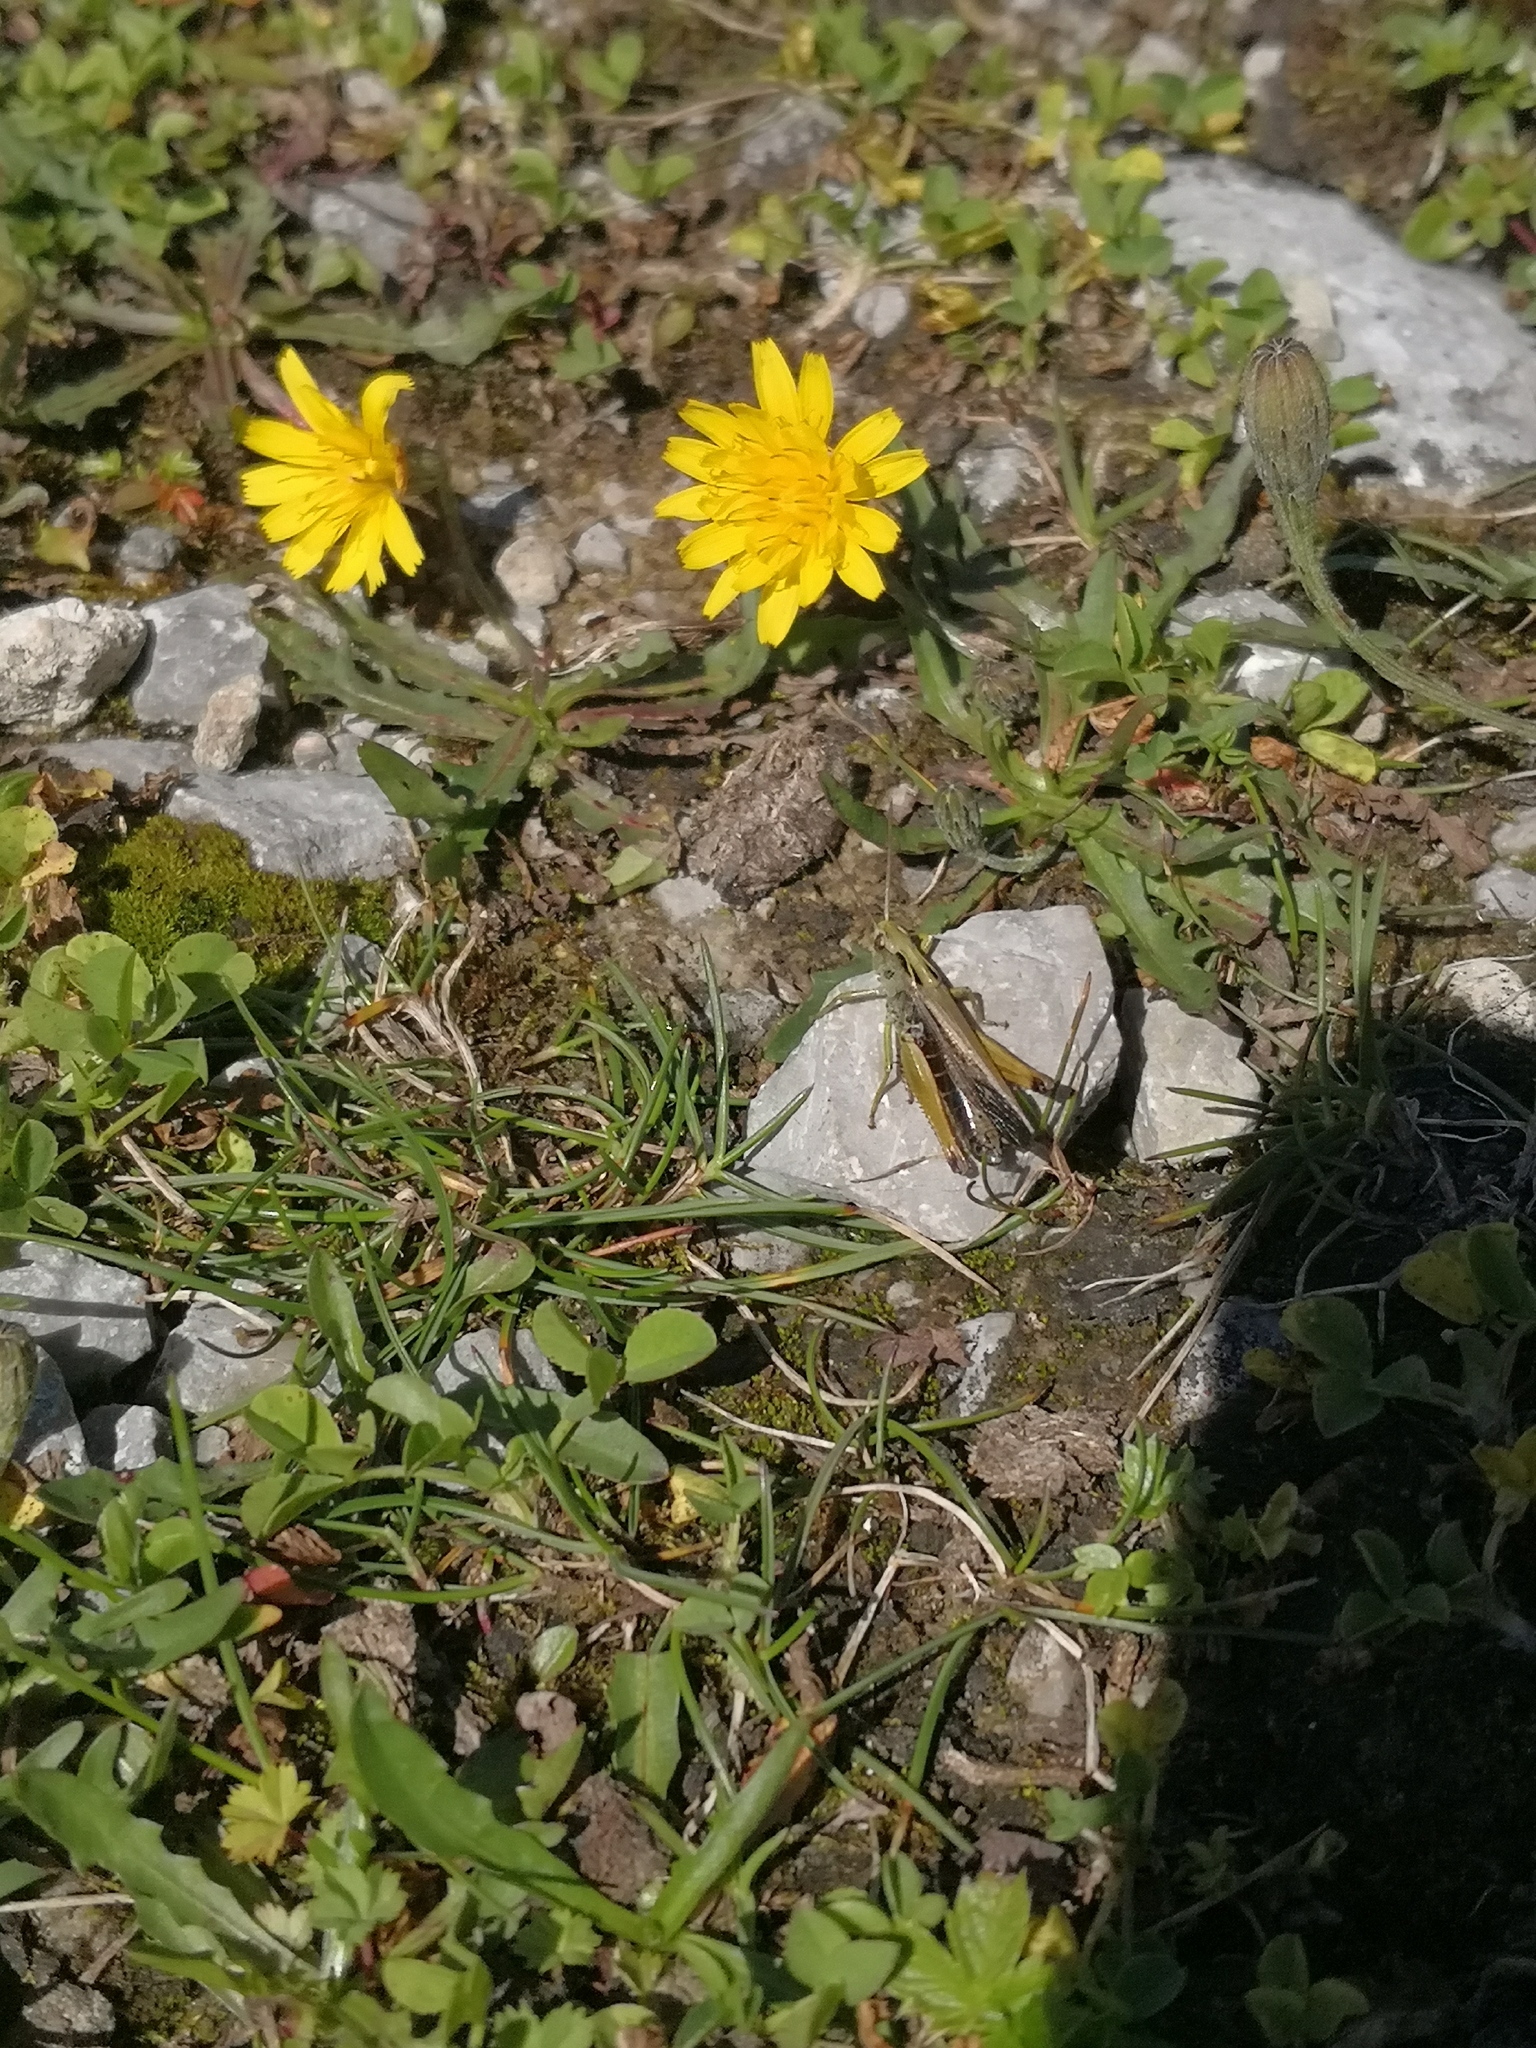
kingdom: Animalia
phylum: Arthropoda
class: Insecta
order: Orthoptera
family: Acrididae
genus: Omocestus
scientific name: Omocestus viridulus
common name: Common green grasshopper
